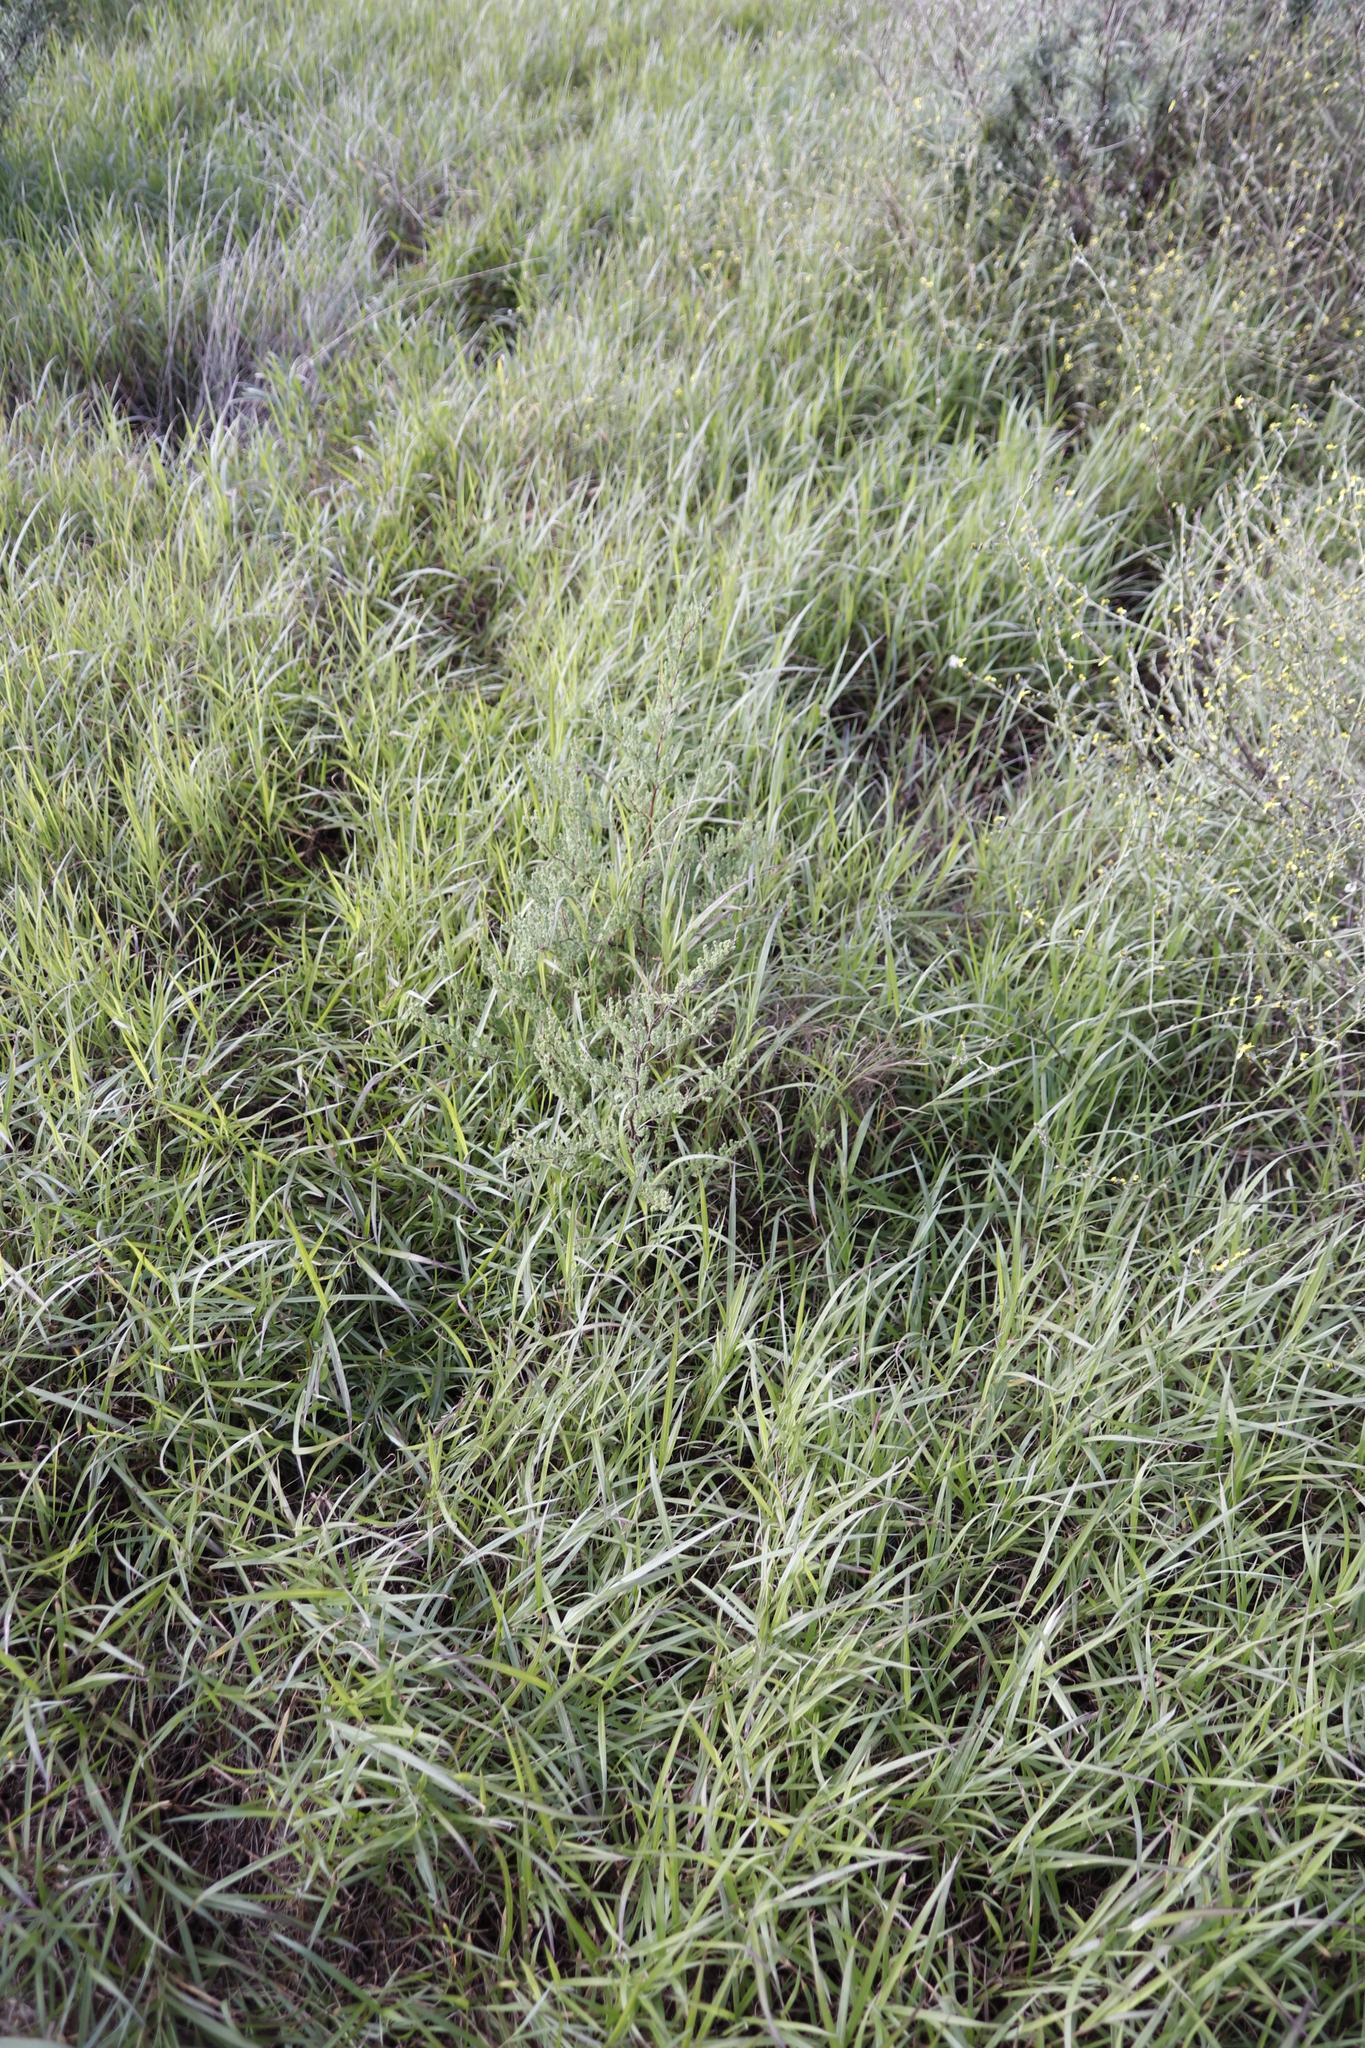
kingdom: Plantae
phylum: Tracheophyta
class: Liliopsida
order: Asparagales
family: Asparagaceae
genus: Asparagus
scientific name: Asparagus rubicundus
